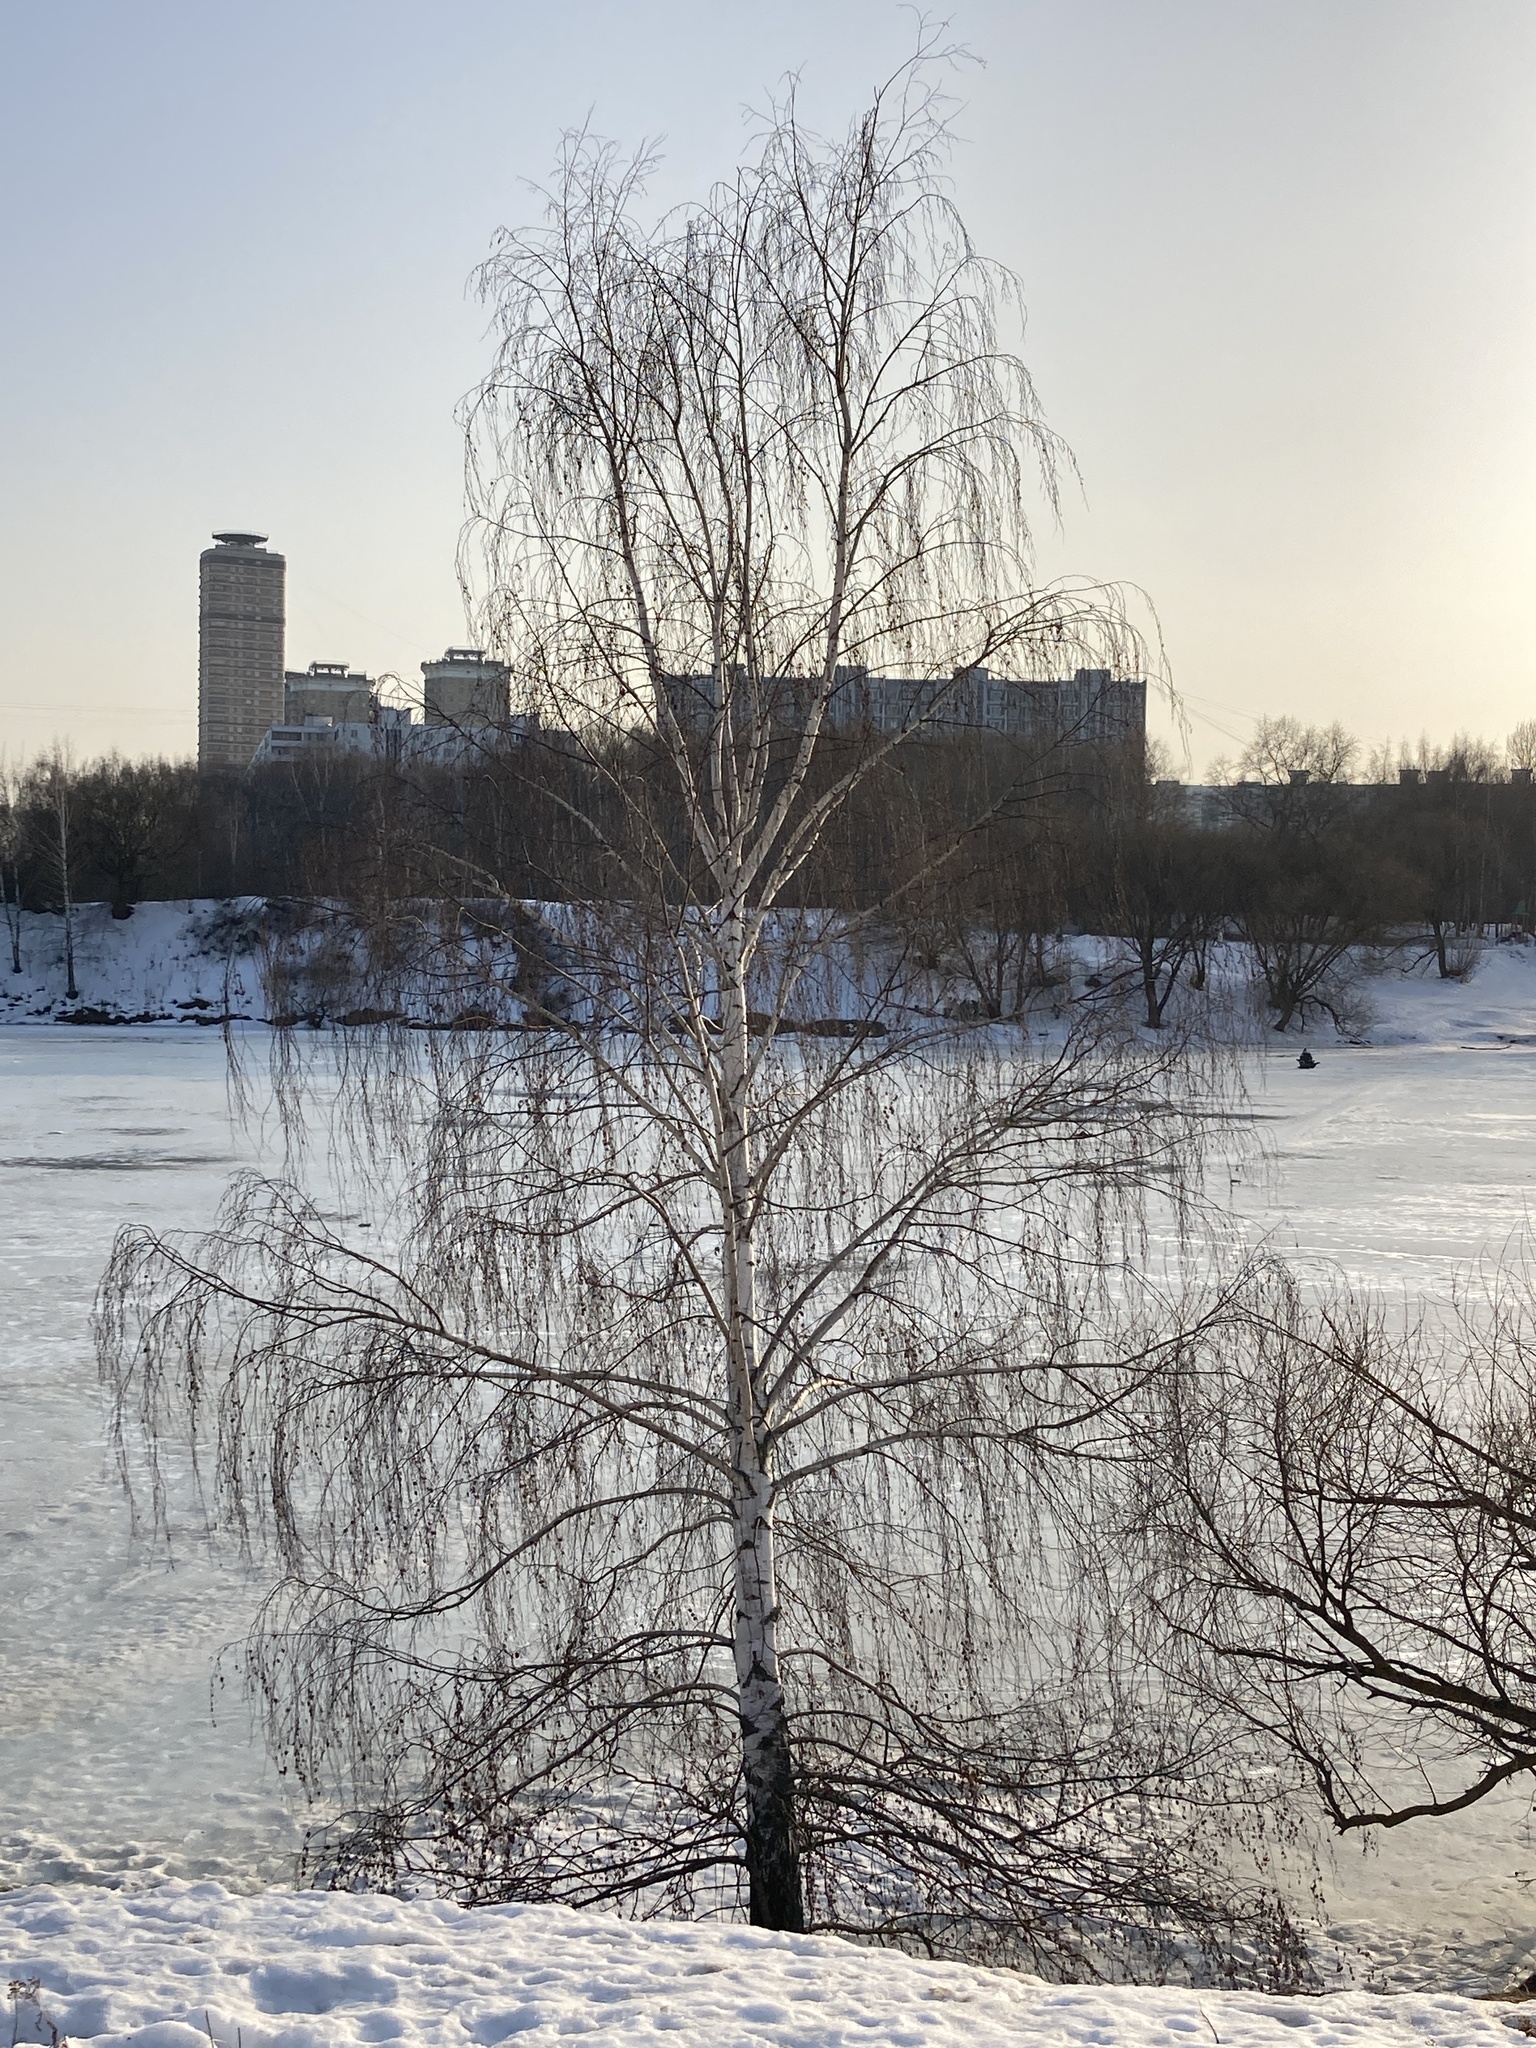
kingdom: Plantae
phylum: Tracheophyta
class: Magnoliopsida
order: Fagales
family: Betulaceae
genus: Betula
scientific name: Betula pendula
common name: Silver birch
